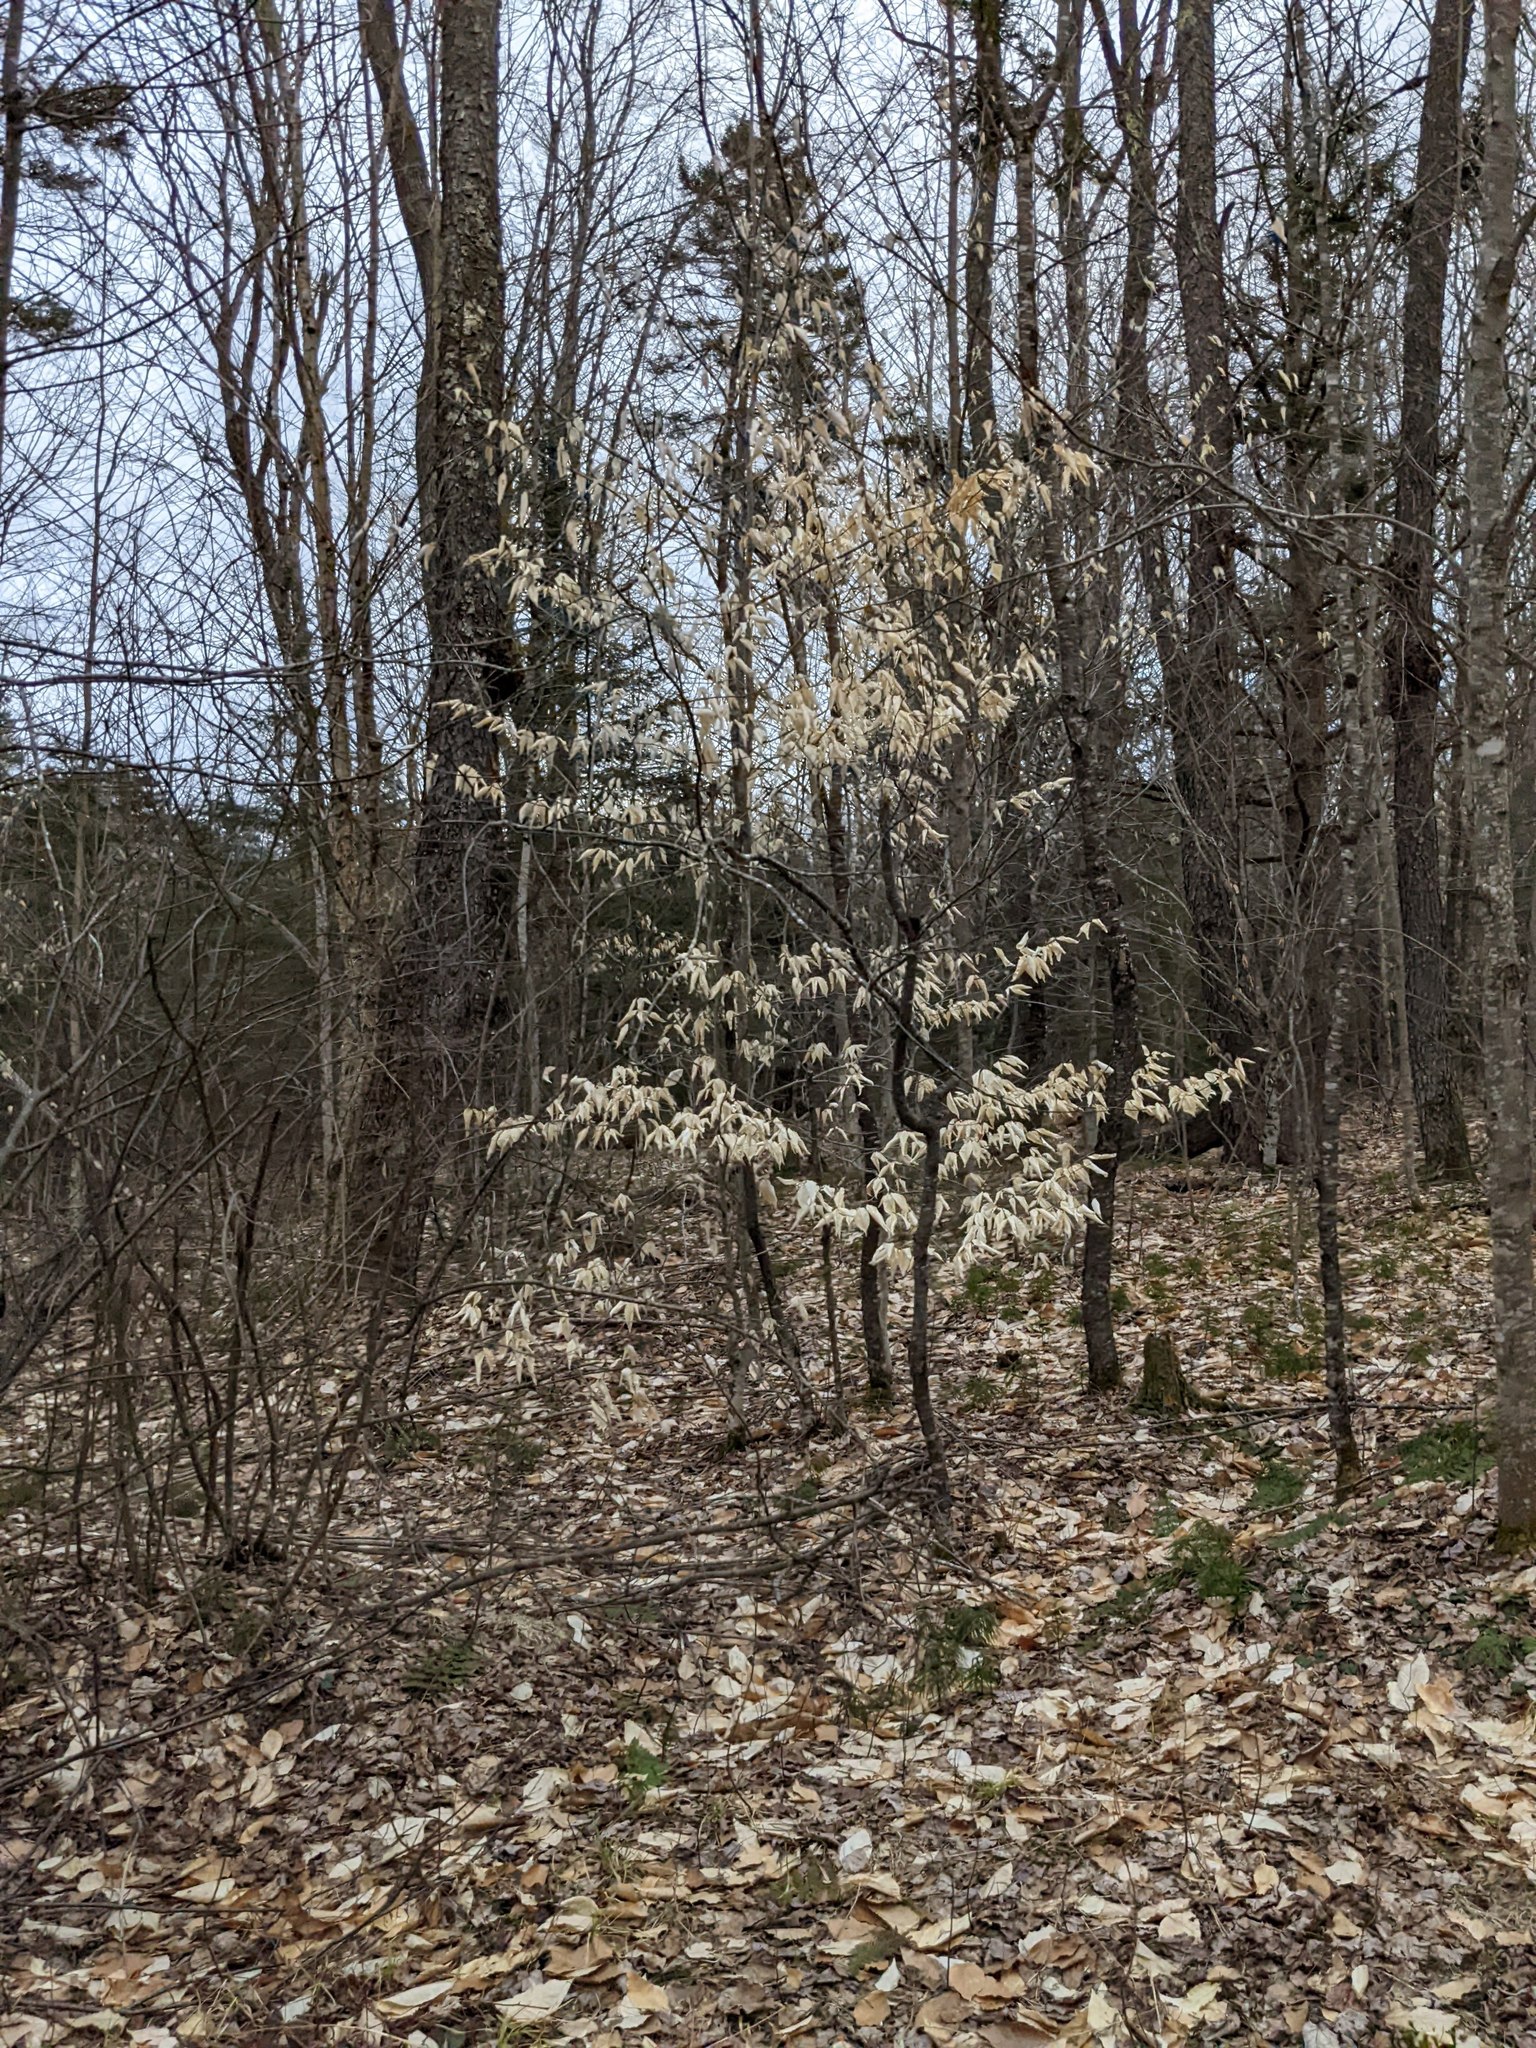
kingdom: Plantae
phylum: Tracheophyta
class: Magnoliopsida
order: Fagales
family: Fagaceae
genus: Fagus
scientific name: Fagus grandifolia
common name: American beech
